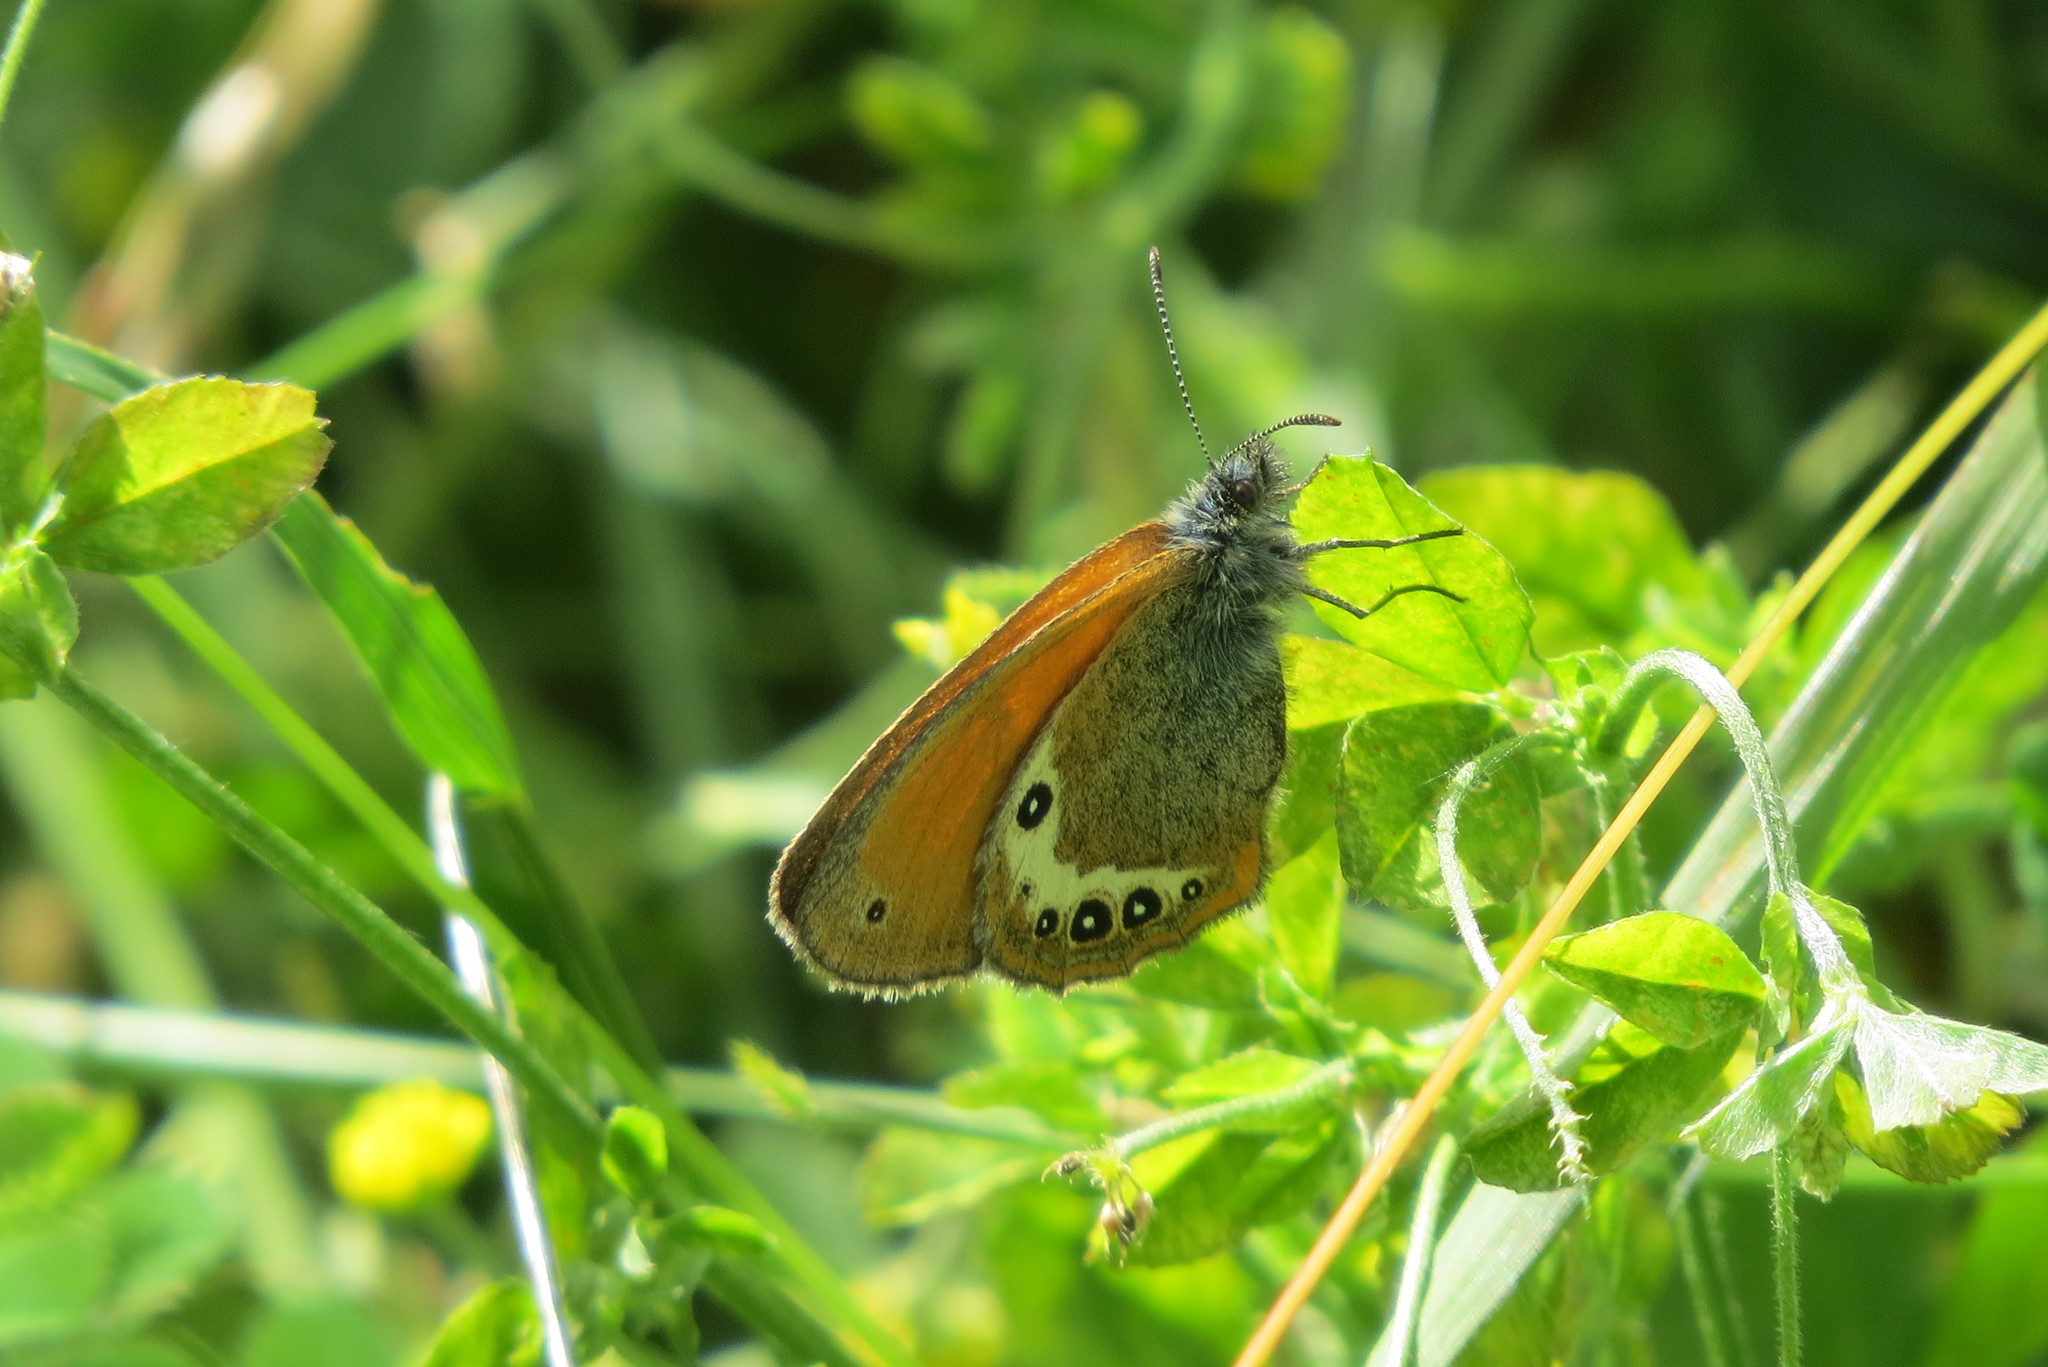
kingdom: Animalia
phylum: Arthropoda
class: Insecta
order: Lepidoptera
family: Nymphalidae
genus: Coenonympha
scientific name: Coenonympha
